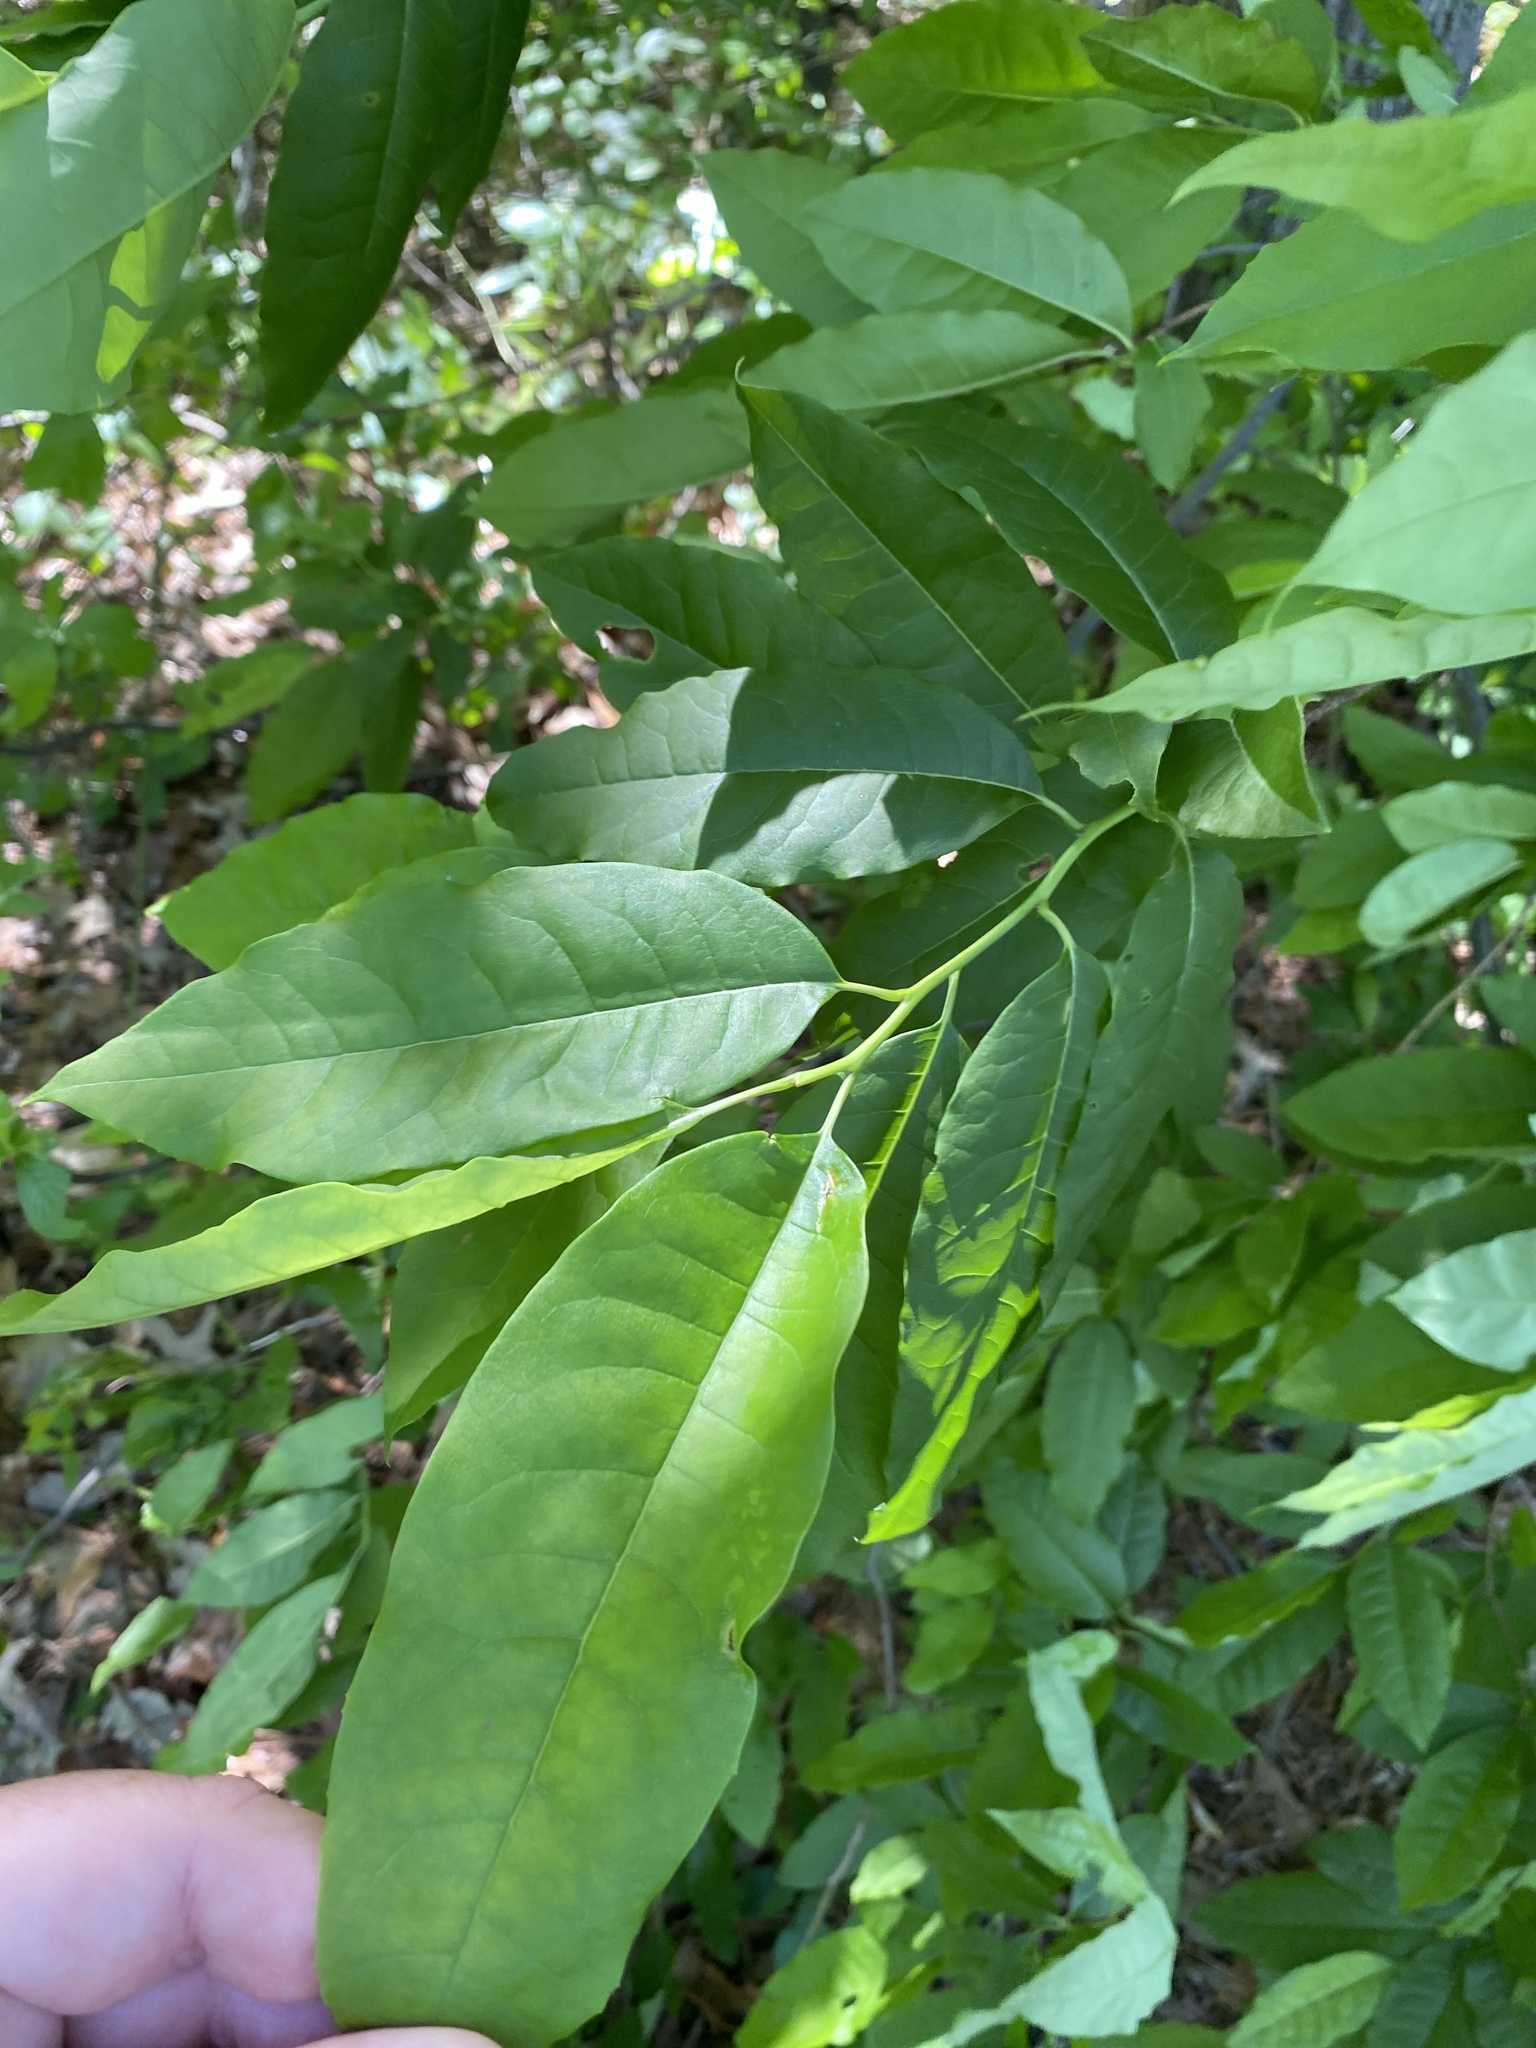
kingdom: Plantae
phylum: Tracheophyta
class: Magnoliopsida
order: Ericales
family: Ericaceae
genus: Oxydendrum
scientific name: Oxydendrum arboreum
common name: Sourwood
